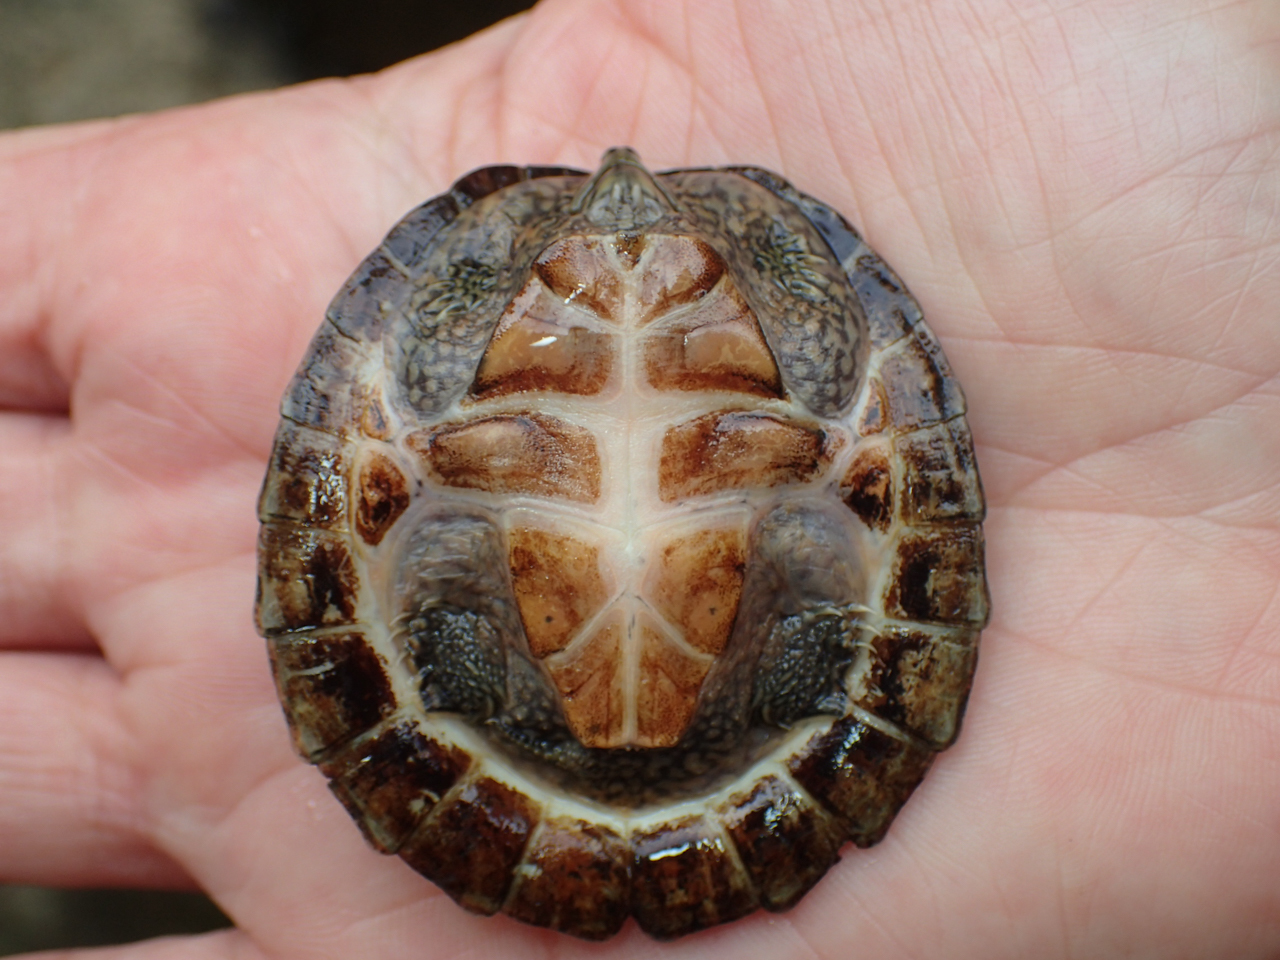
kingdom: Animalia
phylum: Chordata
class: Testudines
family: Kinosternidae
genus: Sternotherus
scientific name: Sternotherus depressus
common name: Flattened musk turtle
